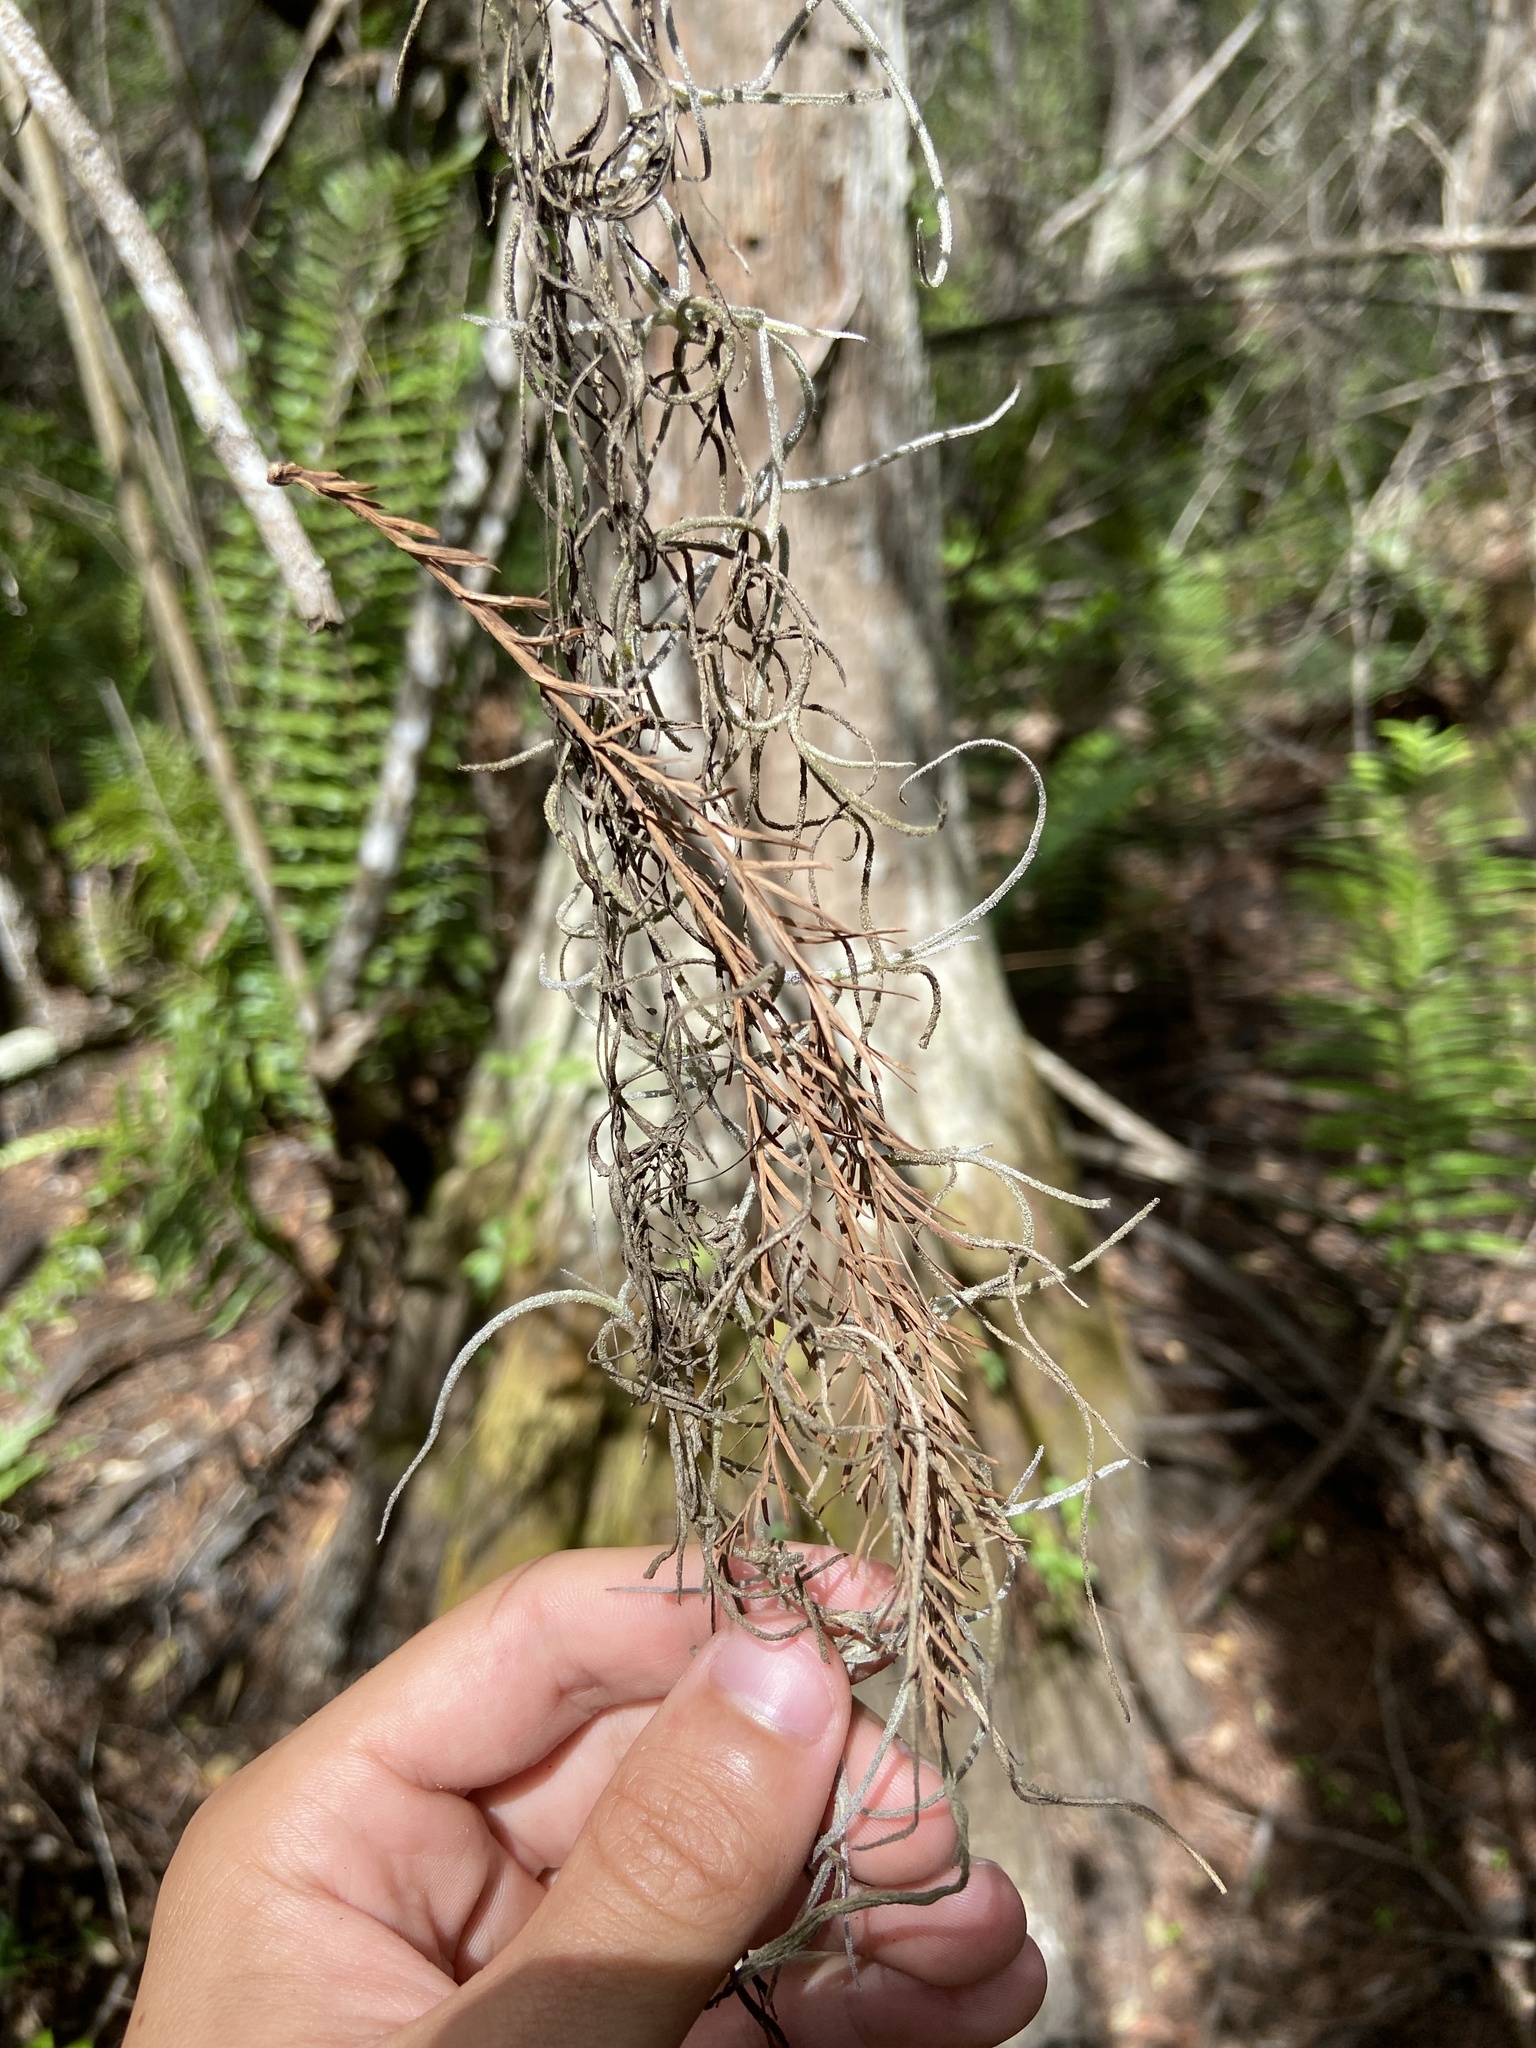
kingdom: Plantae
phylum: Tracheophyta
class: Liliopsida
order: Poales
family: Bromeliaceae
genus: Tillandsia
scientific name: Tillandsia usneoides
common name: Spanish moss
